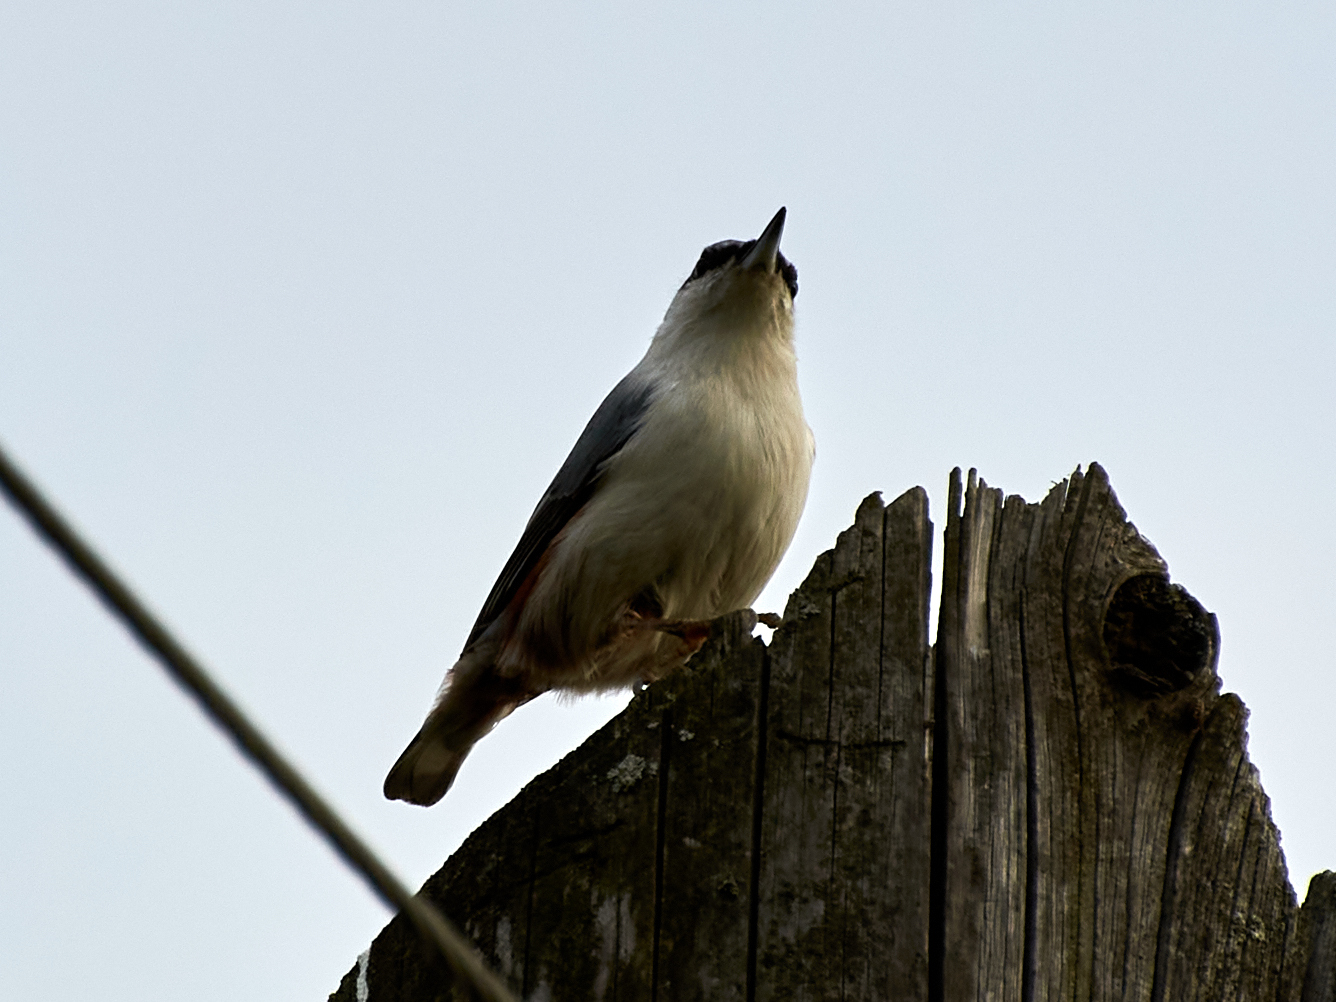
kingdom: Animalia
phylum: Chordata
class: Aves
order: Passeriformes
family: Sittidae
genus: Sitta
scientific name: Sitta europaea
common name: Eurasian nuthatch
